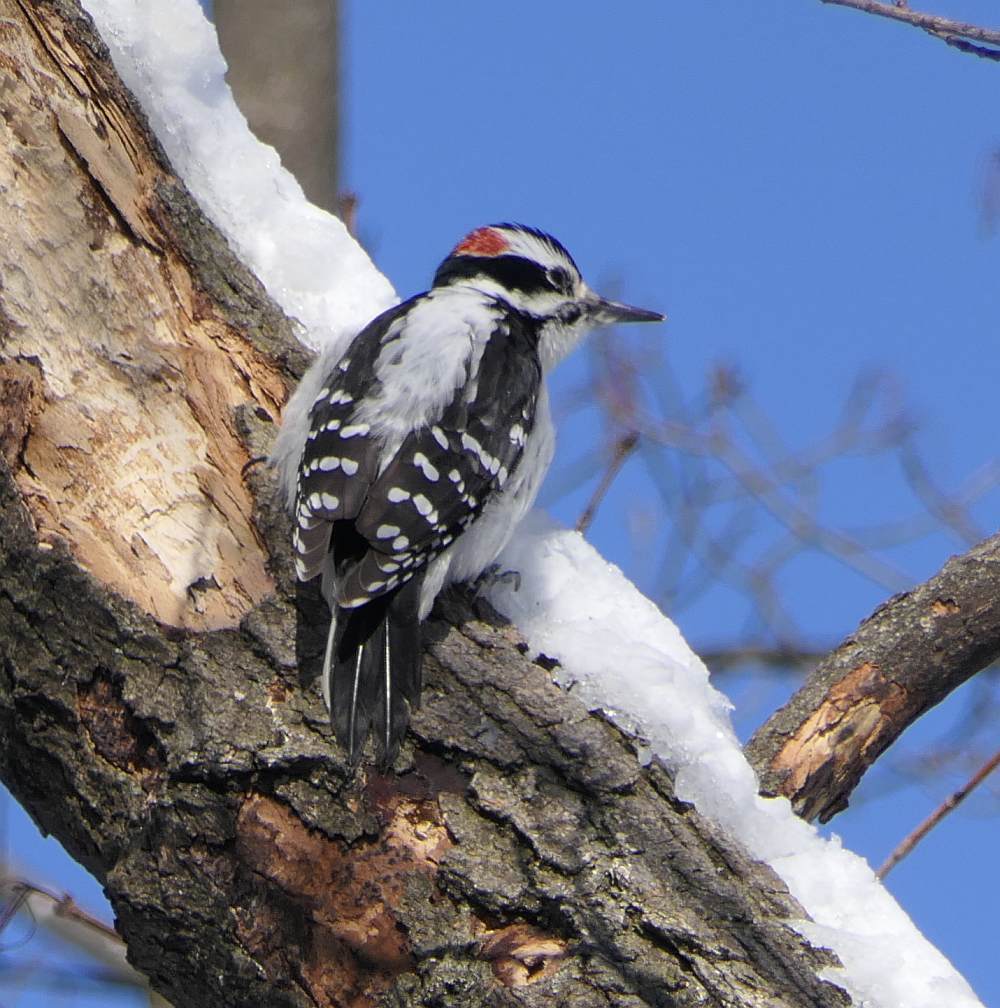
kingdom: Animalia
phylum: Chordata
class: Aves
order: Piciformes
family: Picidae
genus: Leuconotopicus
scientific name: Leuconotopicus villosus
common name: Hairy woodpecker
